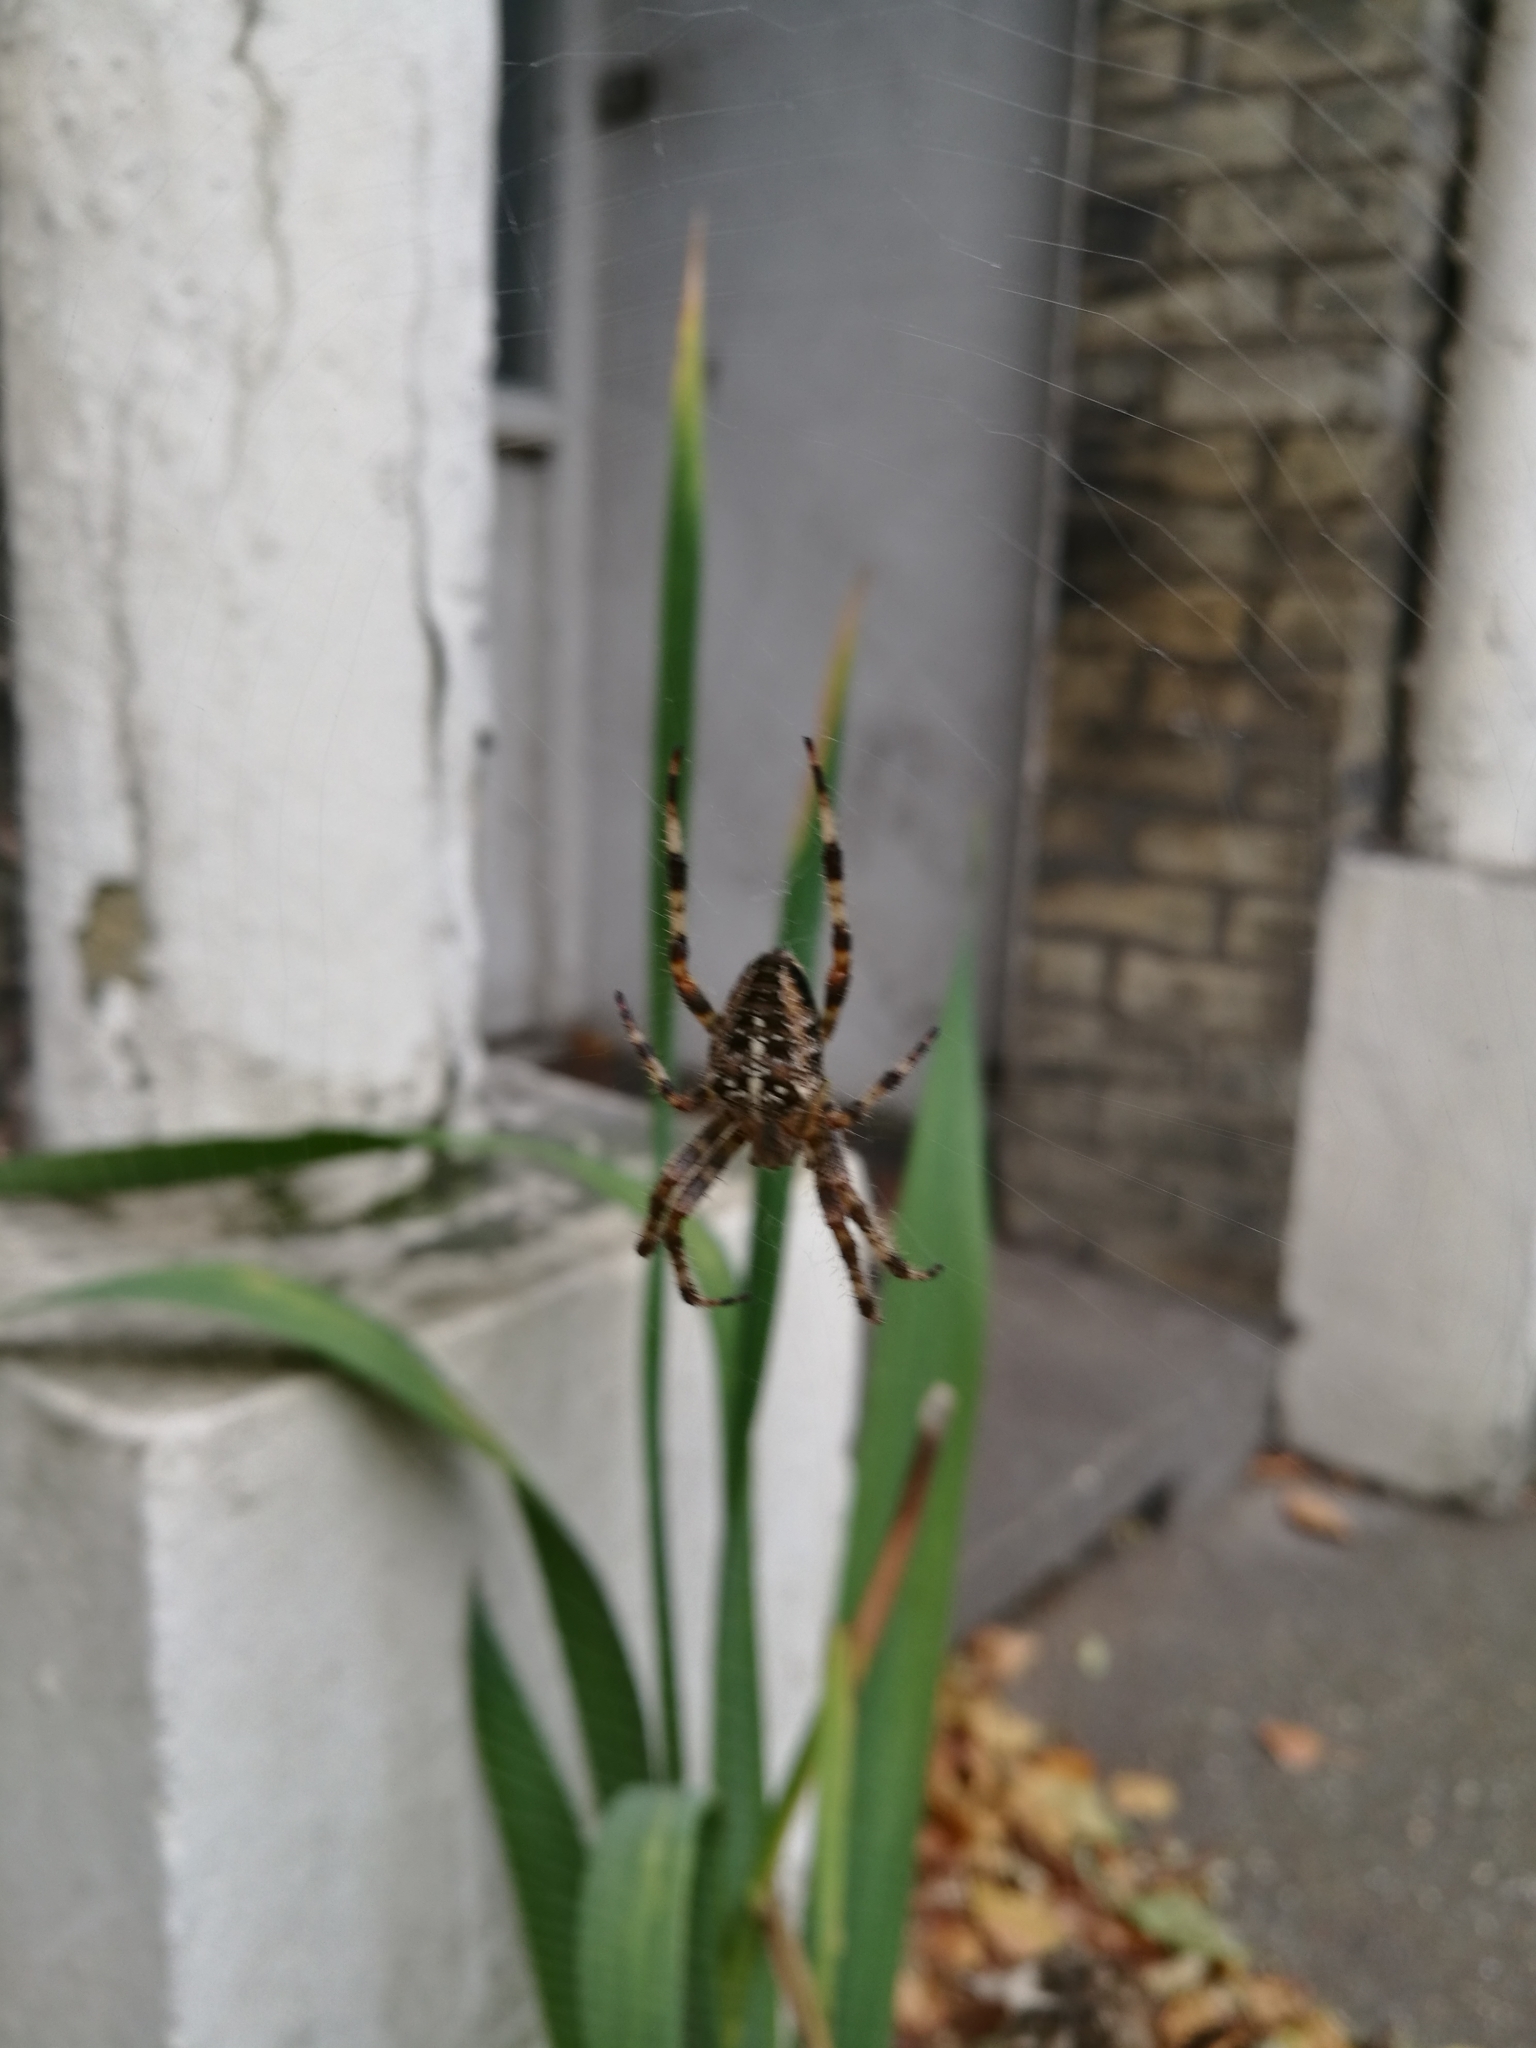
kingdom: Animalia
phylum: Arthropoda
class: Arachnida
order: Araneae
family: Araneidae
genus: Araneus
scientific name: Araneus diadematus
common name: Cross orbweaver
